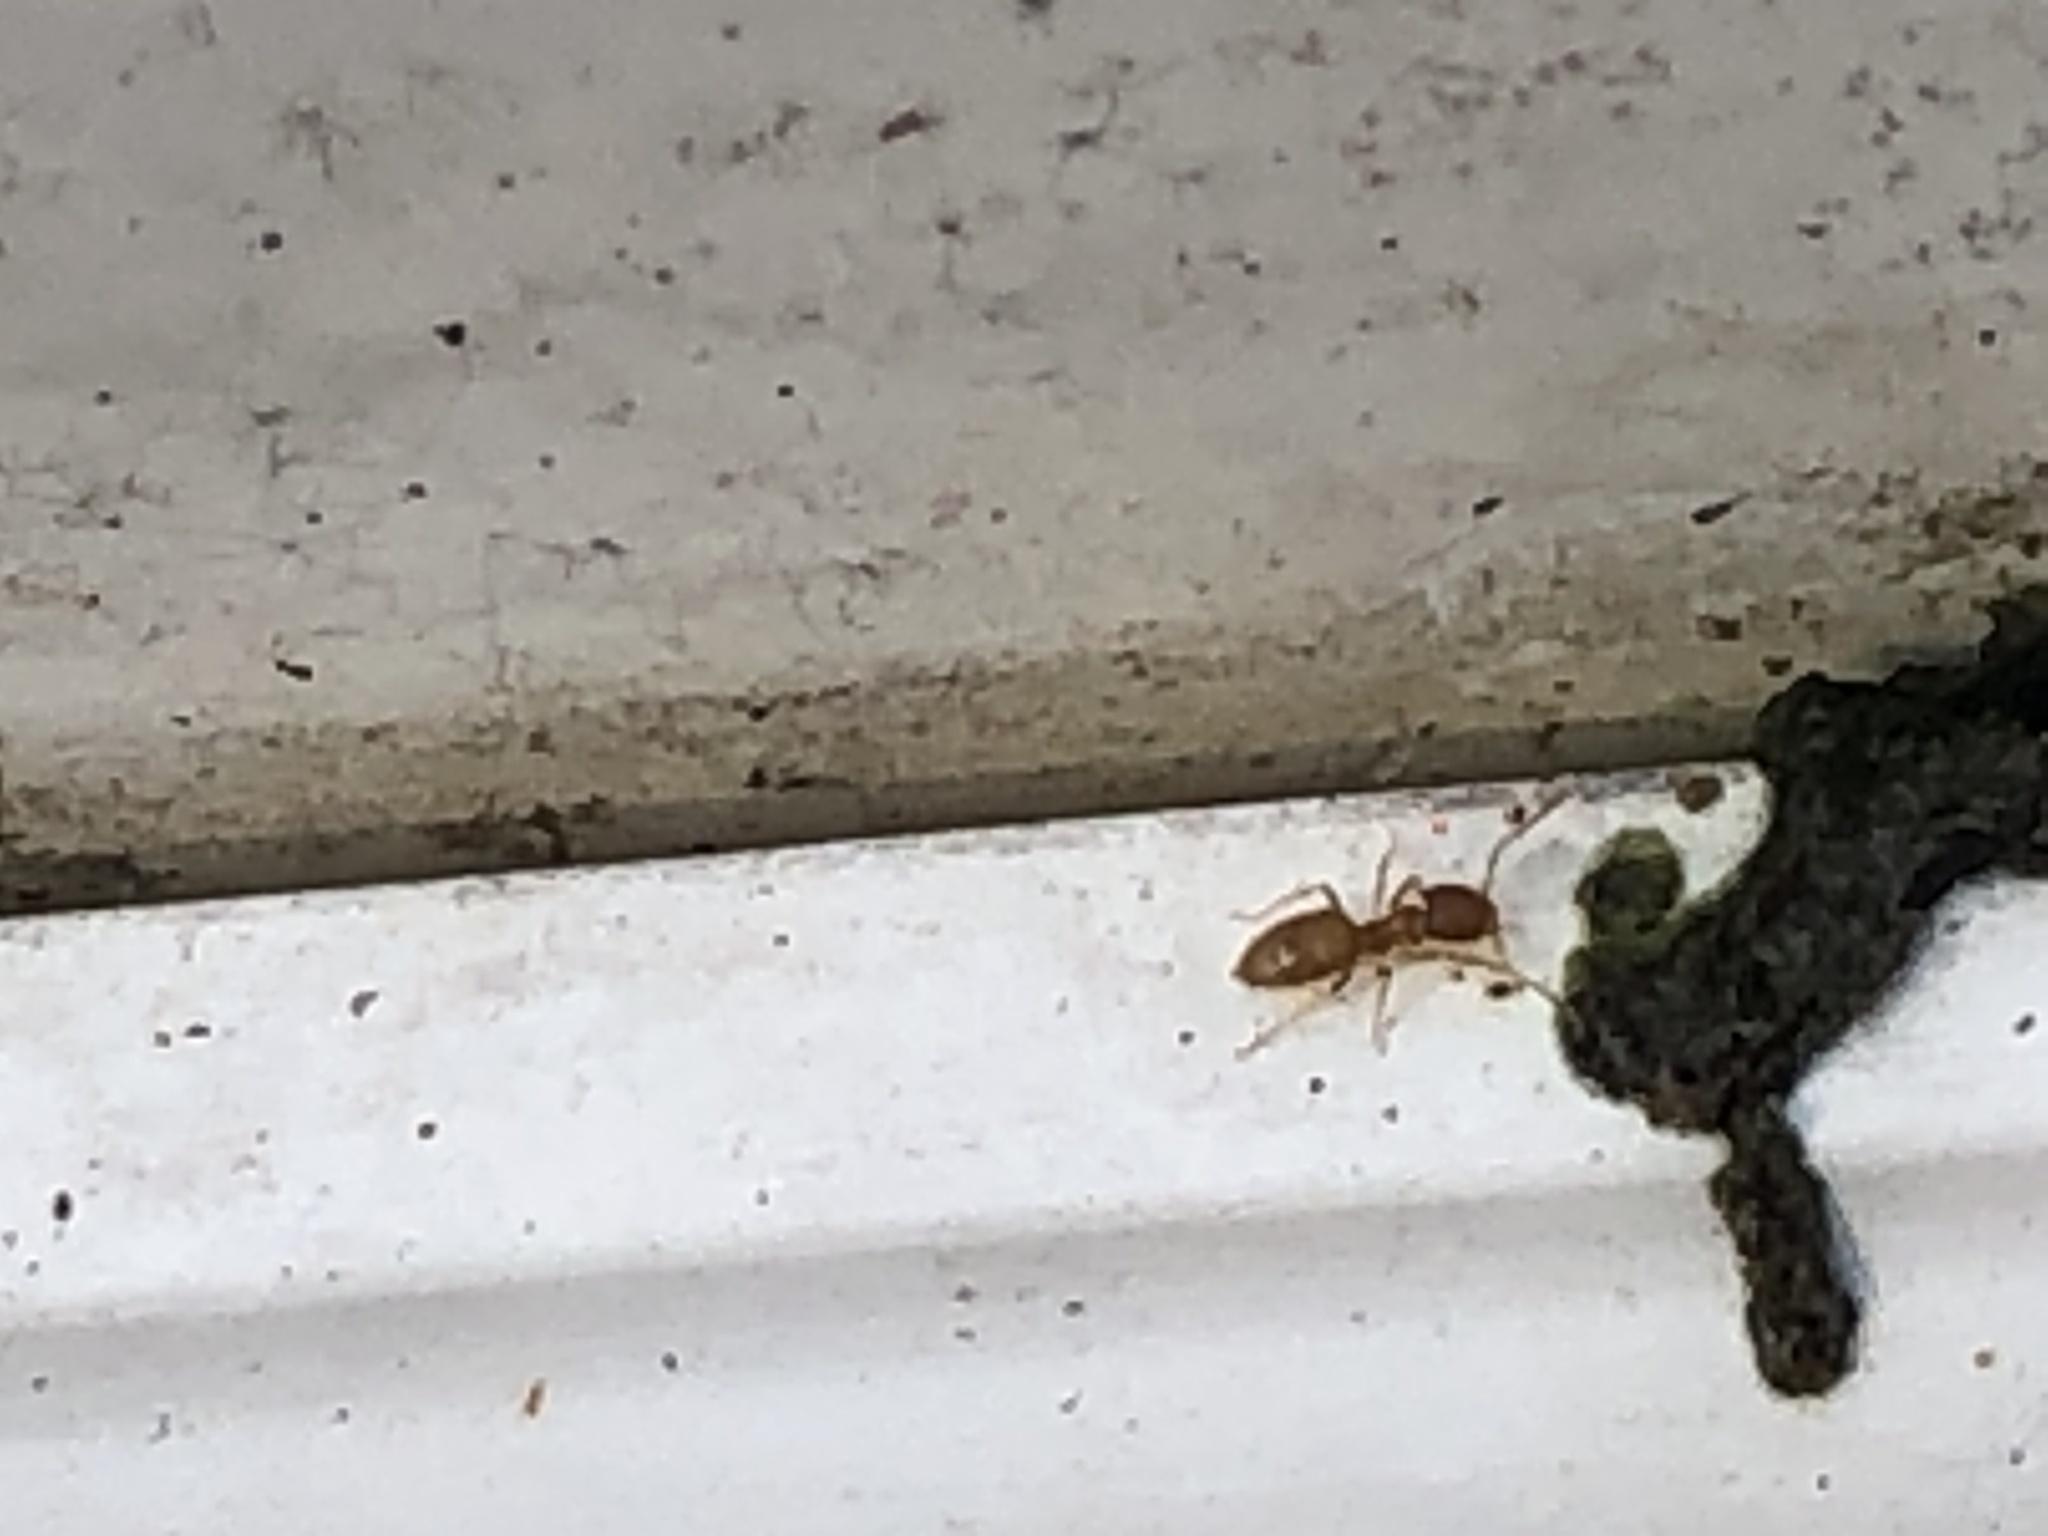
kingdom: Animalia
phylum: Arthropoda
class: Insecta
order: Hymenoptera
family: Formicidae
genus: Brachymyrmex
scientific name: Brachymyrmex depilis
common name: Hairless rover ant
